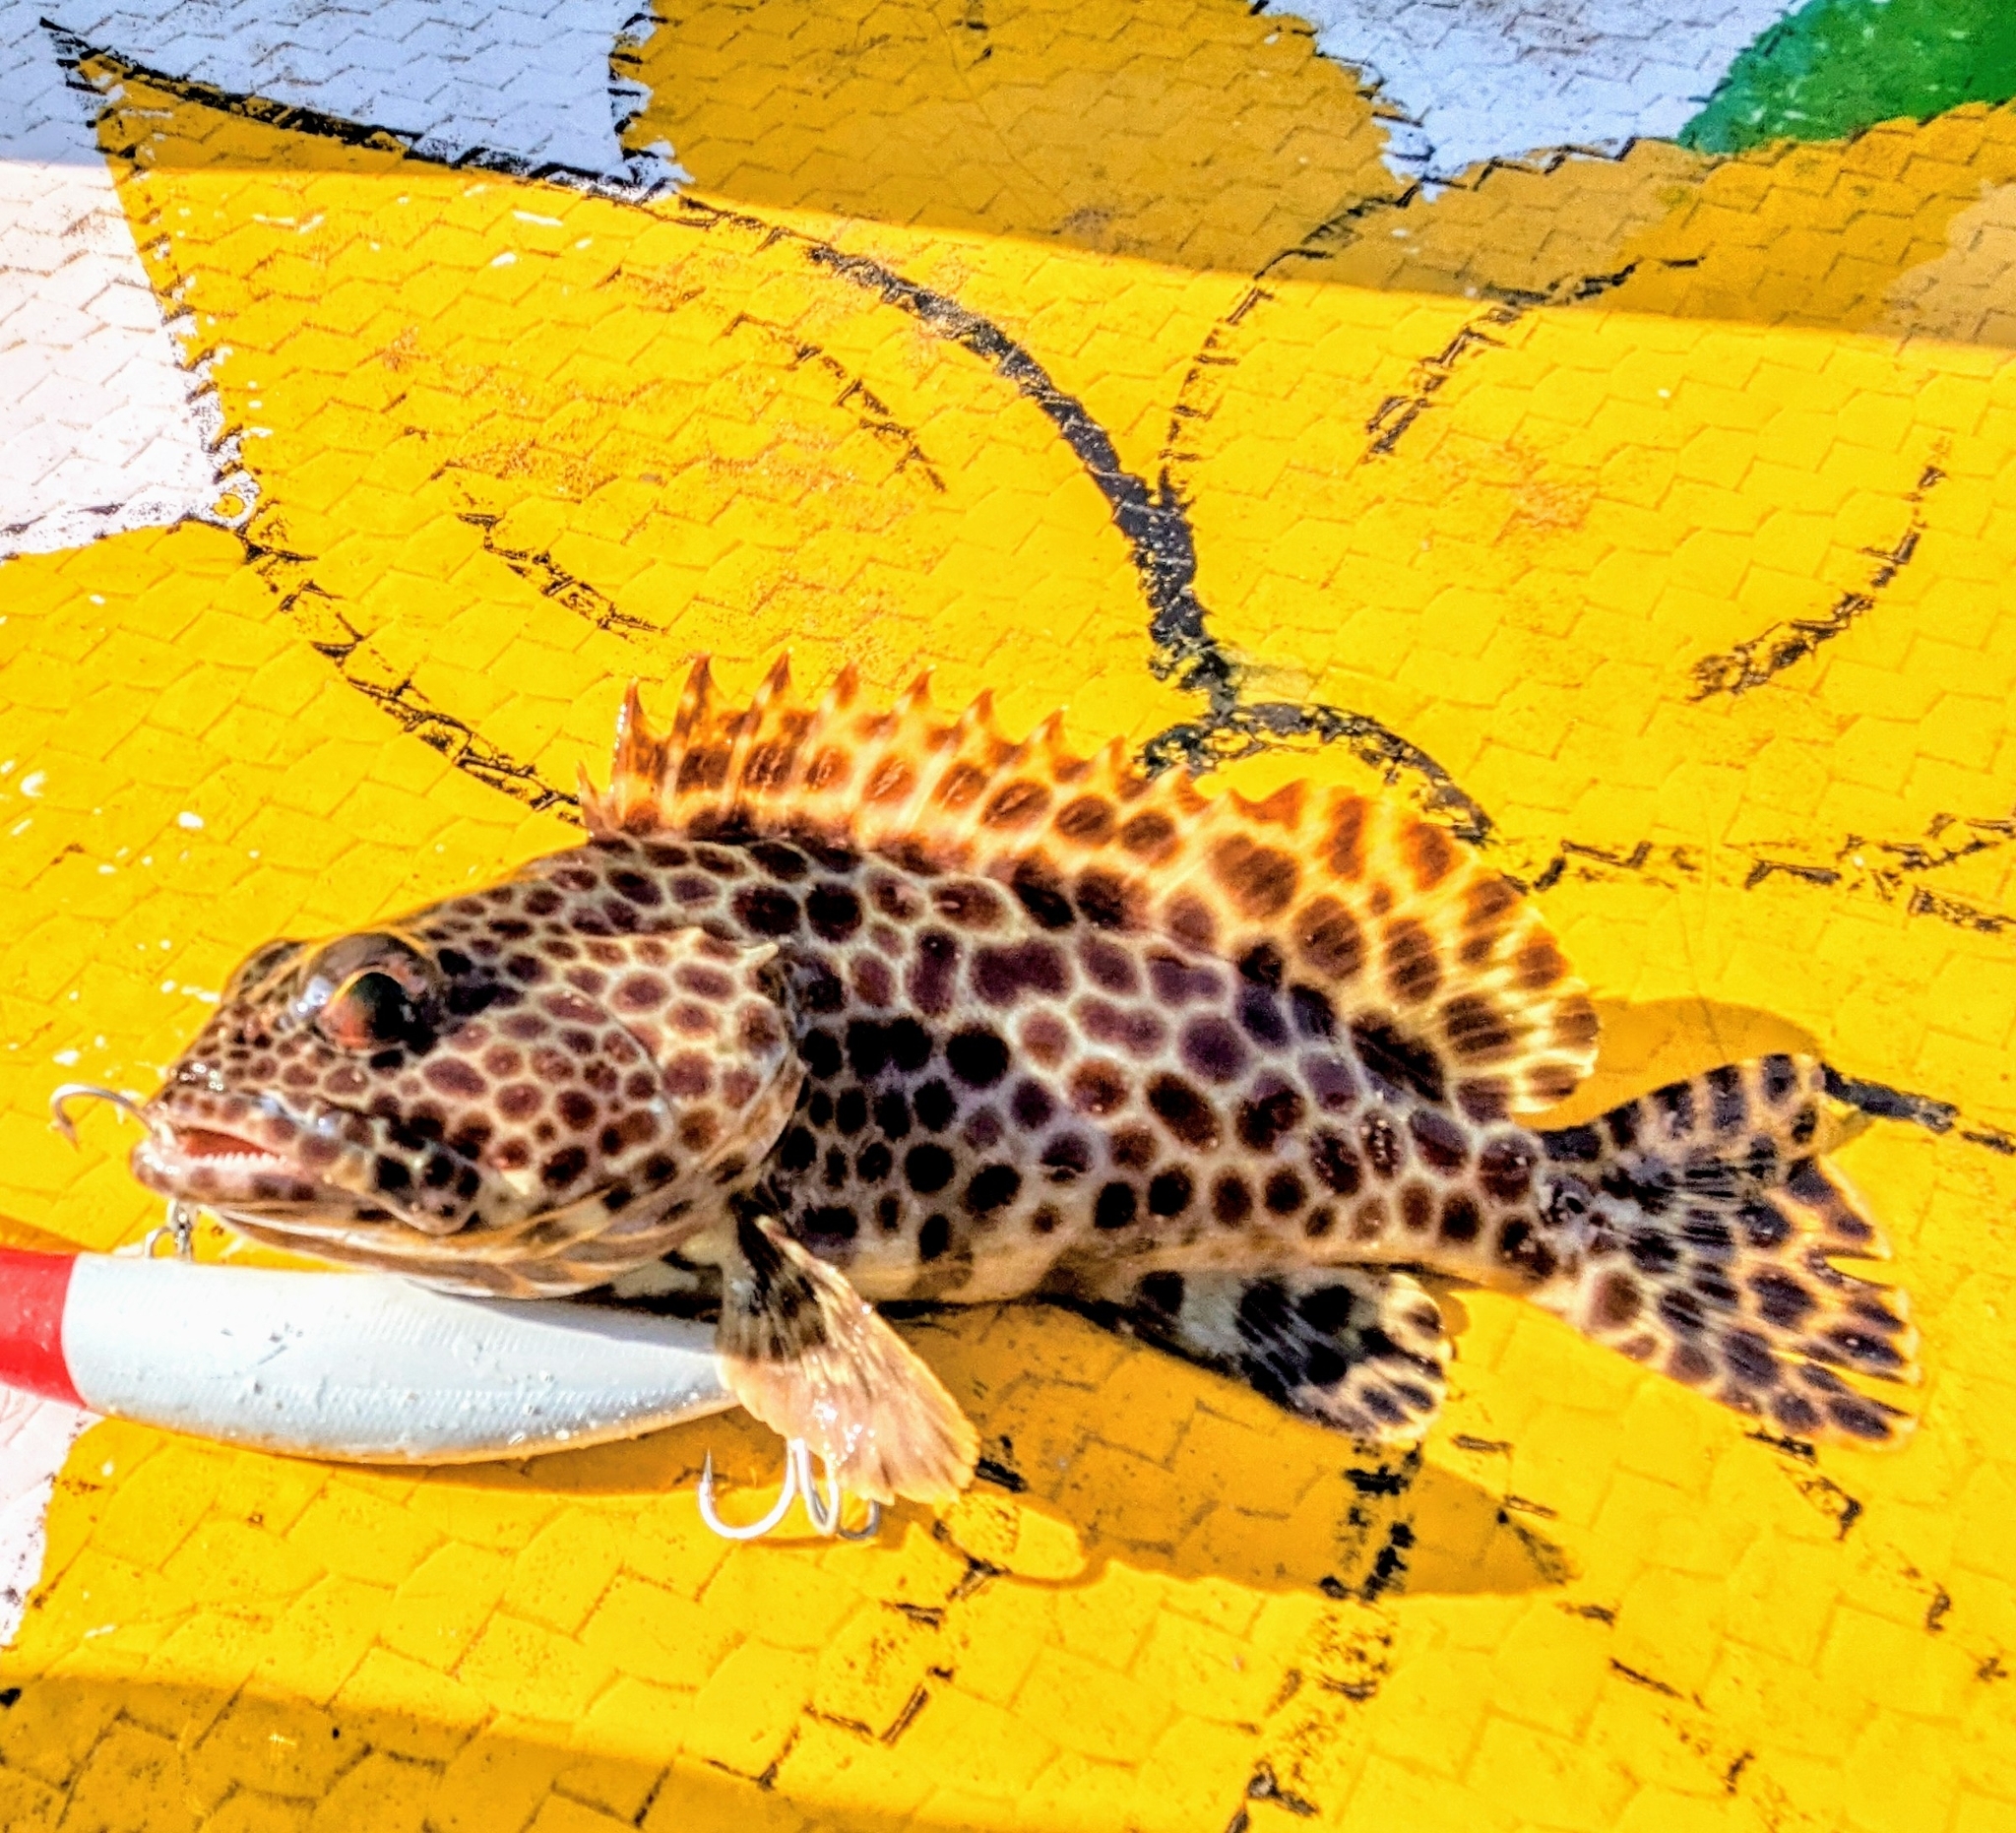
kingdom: Animalia
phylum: Chordata
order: Perciformes
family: Serranidae
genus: Epinephelus
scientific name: Epinephelus faveatus
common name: Barred-chest grouper
